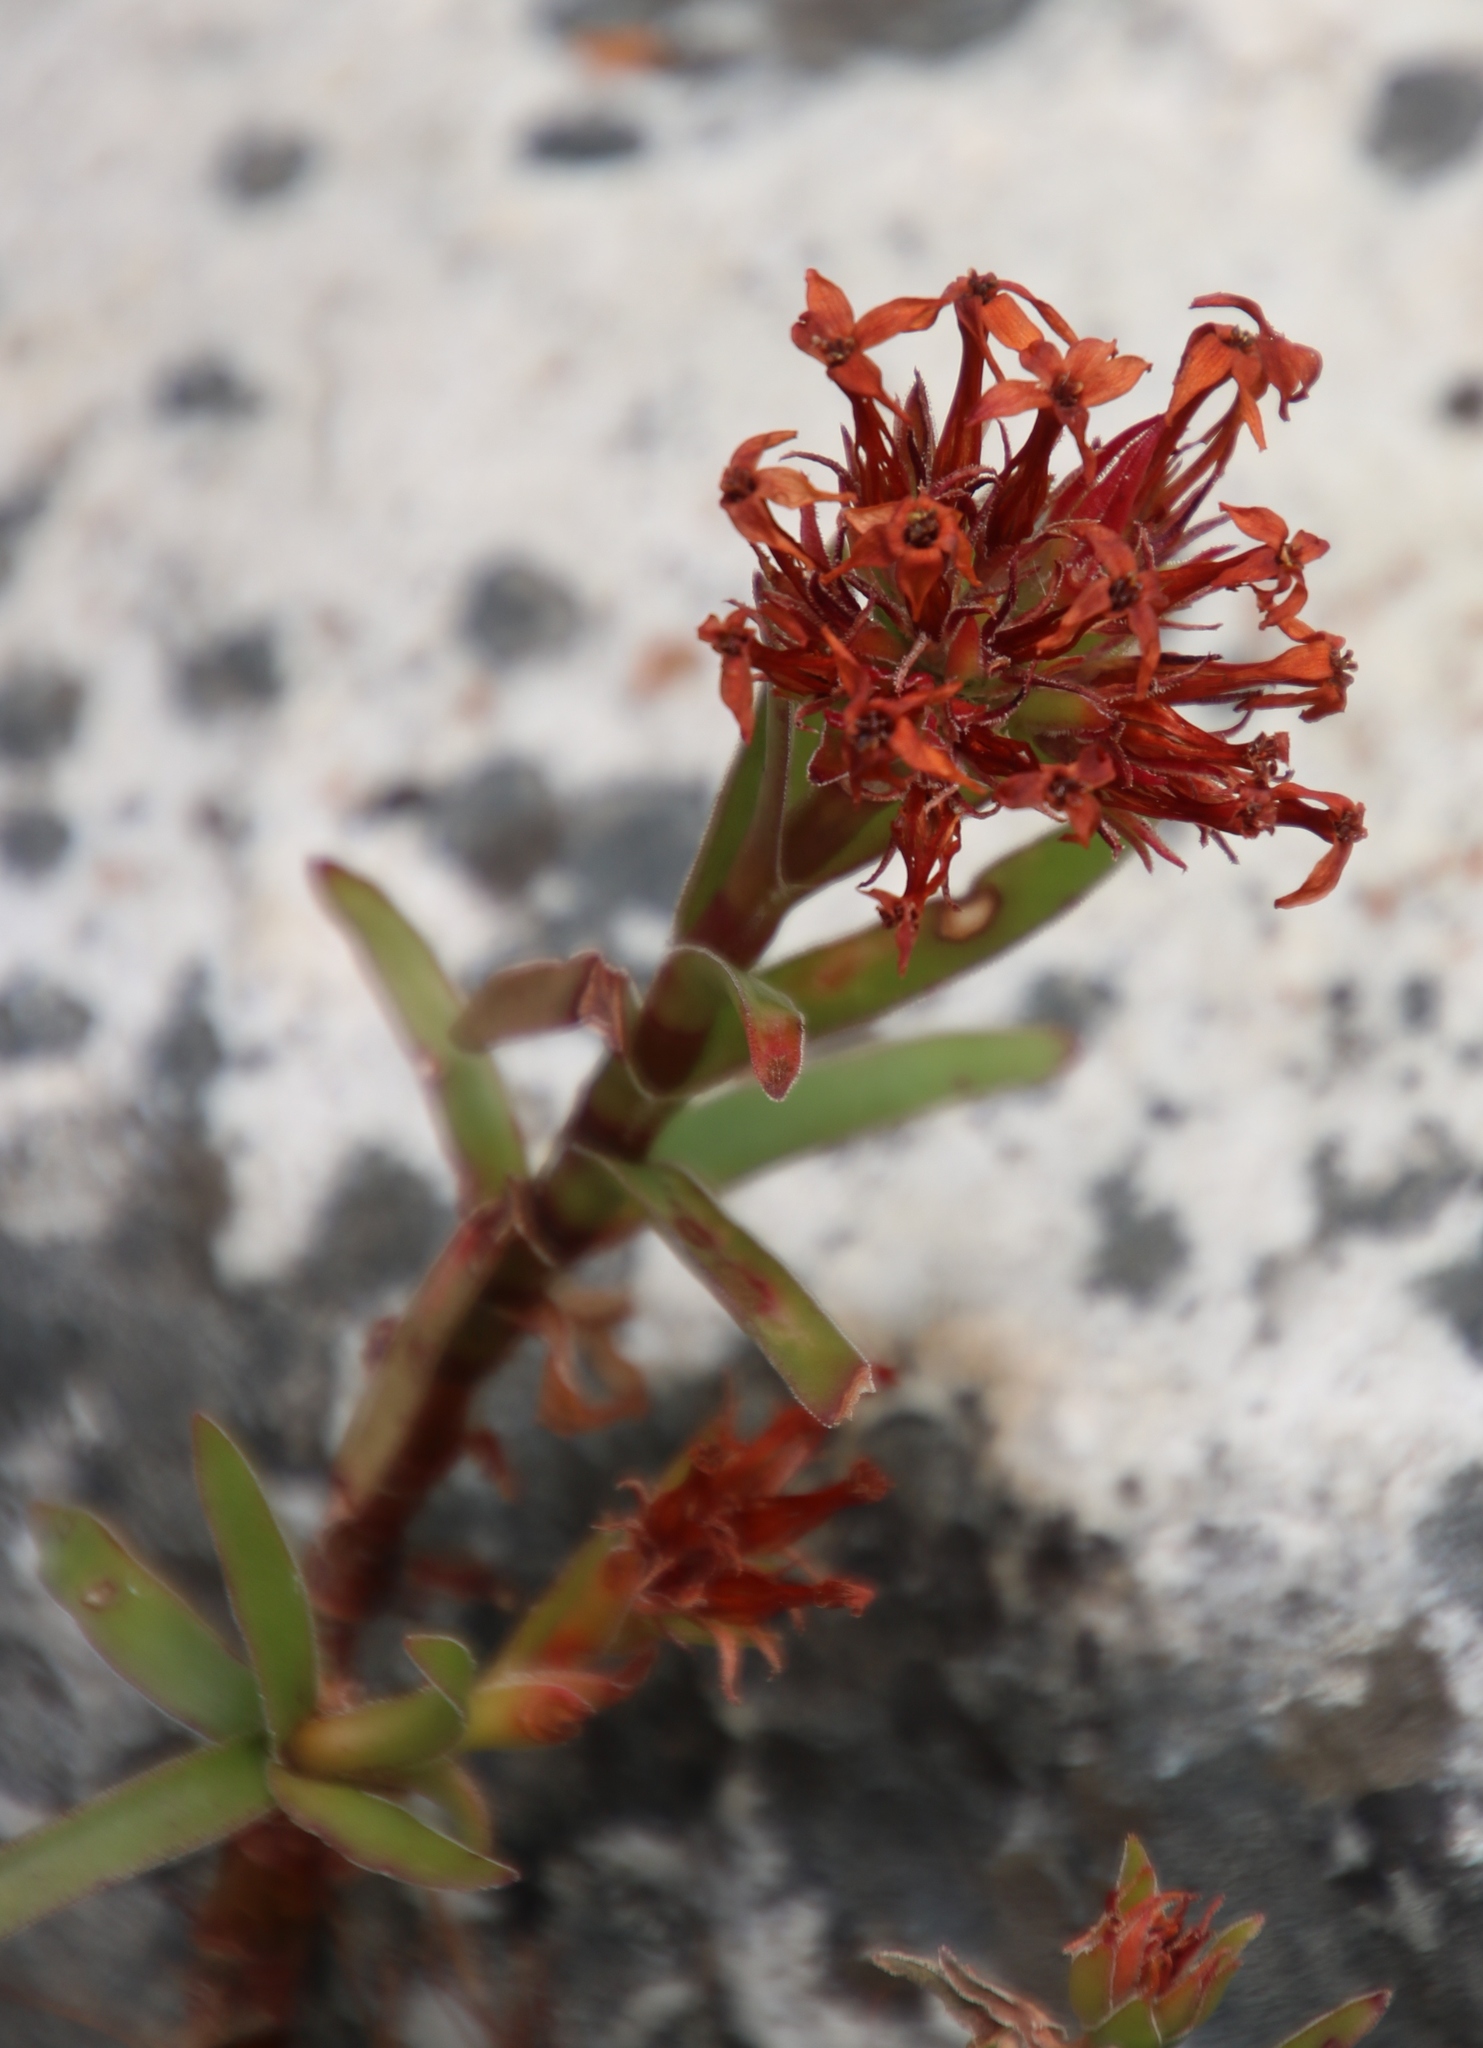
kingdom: Plantae
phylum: Tracheophyta
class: Magnoliopsida
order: Saxifragales
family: Crassulaceae
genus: Crassula
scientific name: Crassula fascicularis
